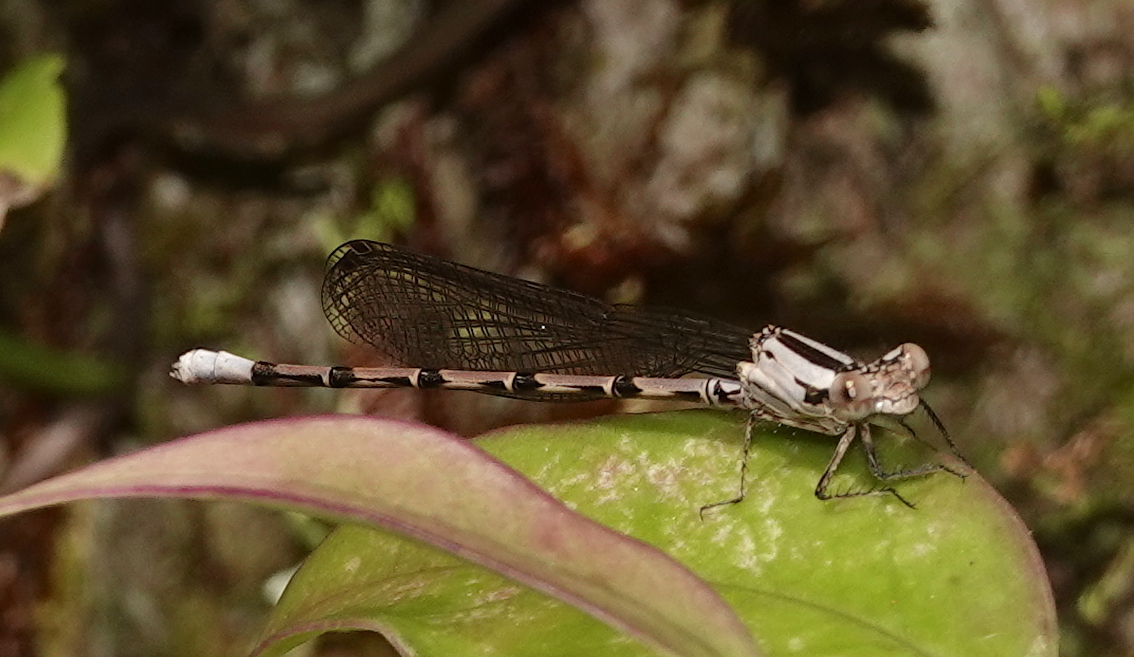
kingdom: Animalia
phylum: Arthropoda
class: Insecta
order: Odonata
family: Coenagrionidae
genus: Argia
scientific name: Argia elongata
